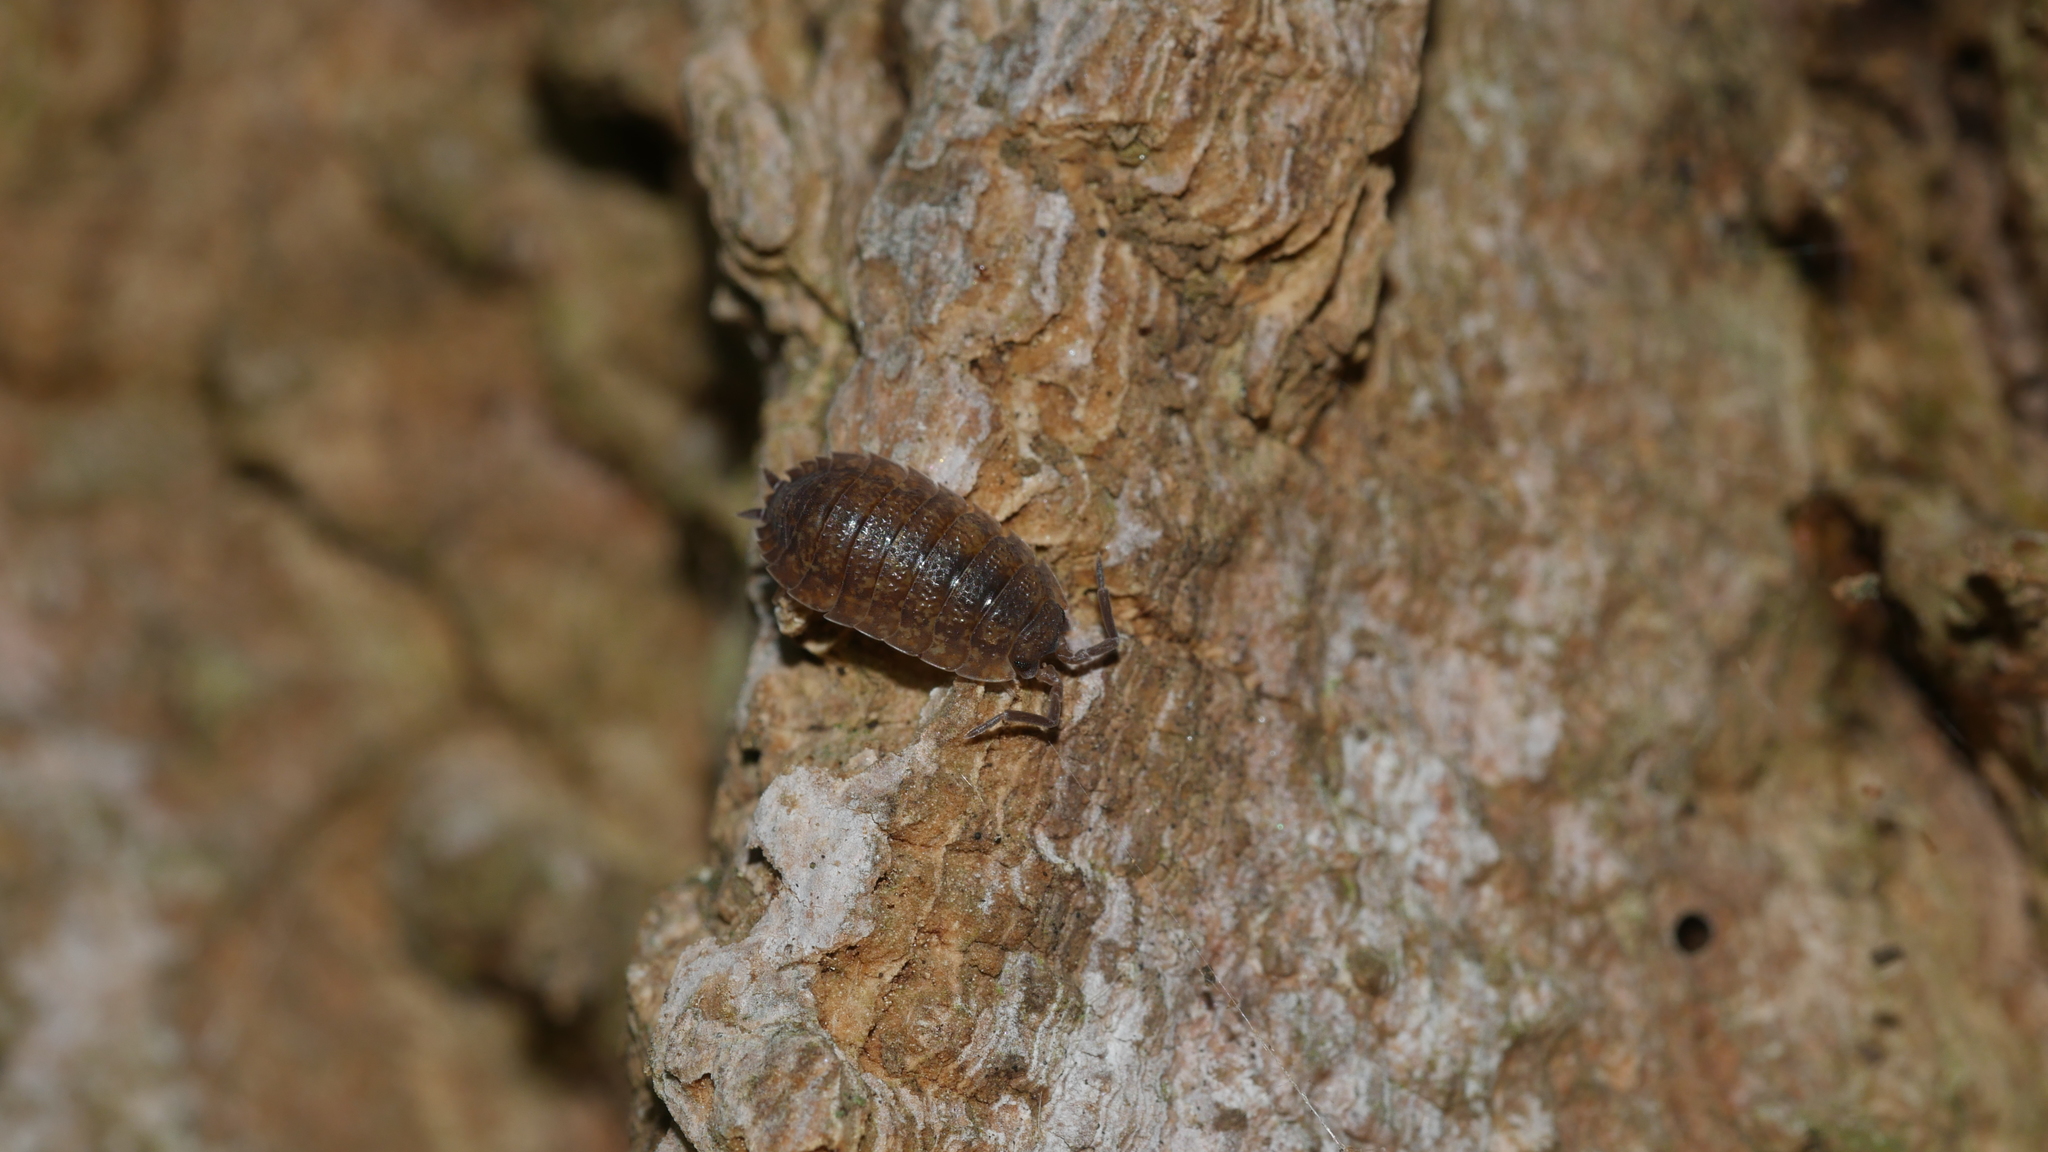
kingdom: Animalia
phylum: Arthropoda
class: Malacostraca
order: Isopoda
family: Porcellionidae
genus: Porcellio
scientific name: Porcellio scaber
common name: Common rough woodlouse
